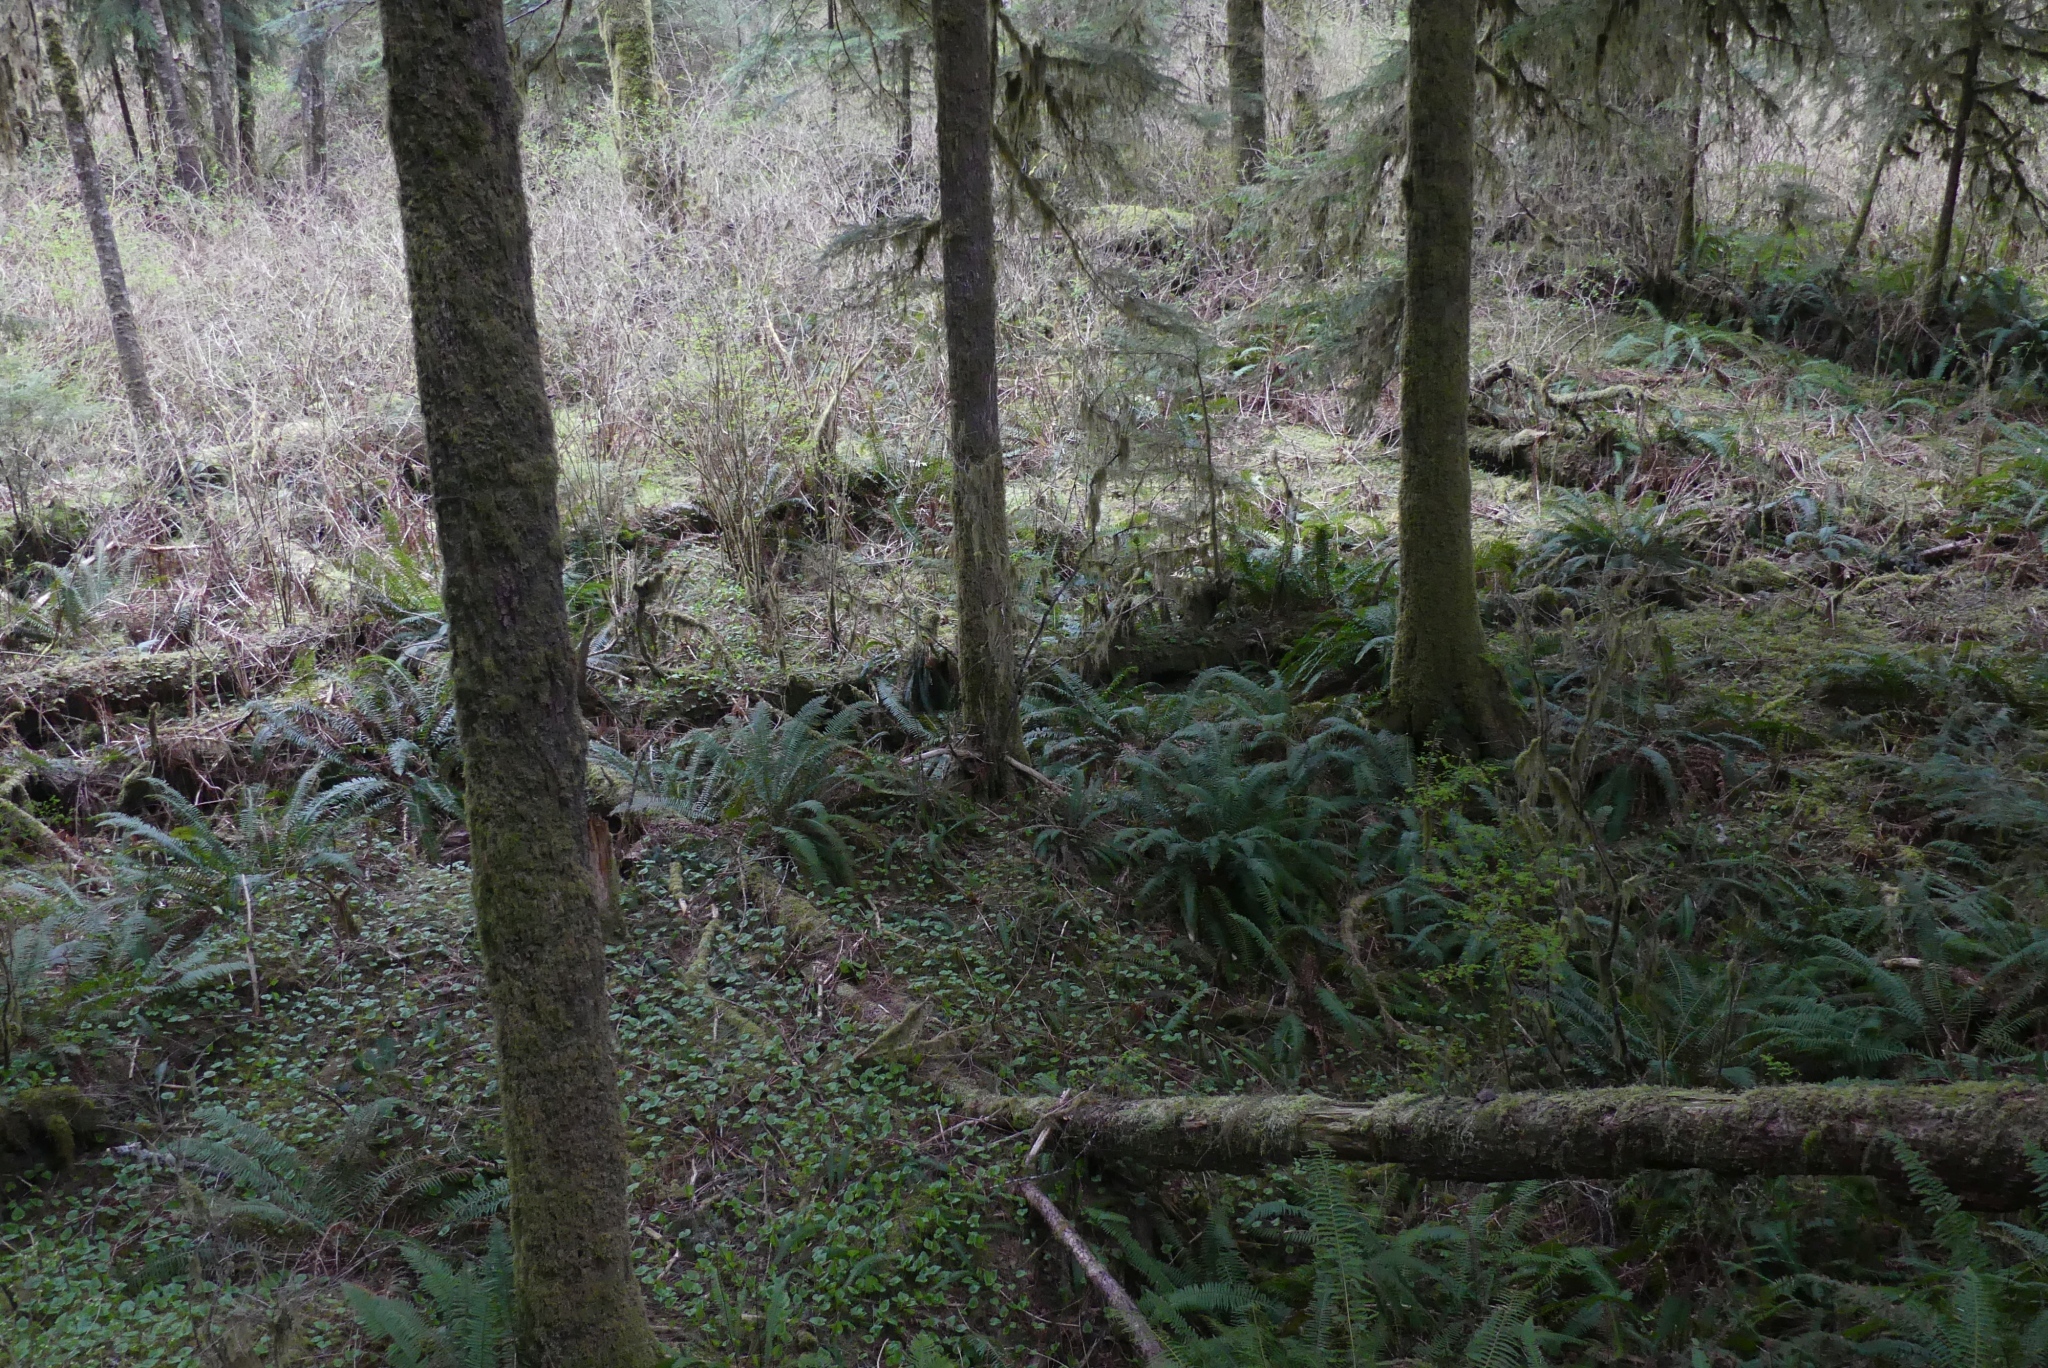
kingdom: Plantae
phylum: Tracheophyta
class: Polypodiopsida
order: Polypodiales
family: Dryopteridaceae
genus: Polystichum
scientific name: Polystichum munitum
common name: Western sword-fern
